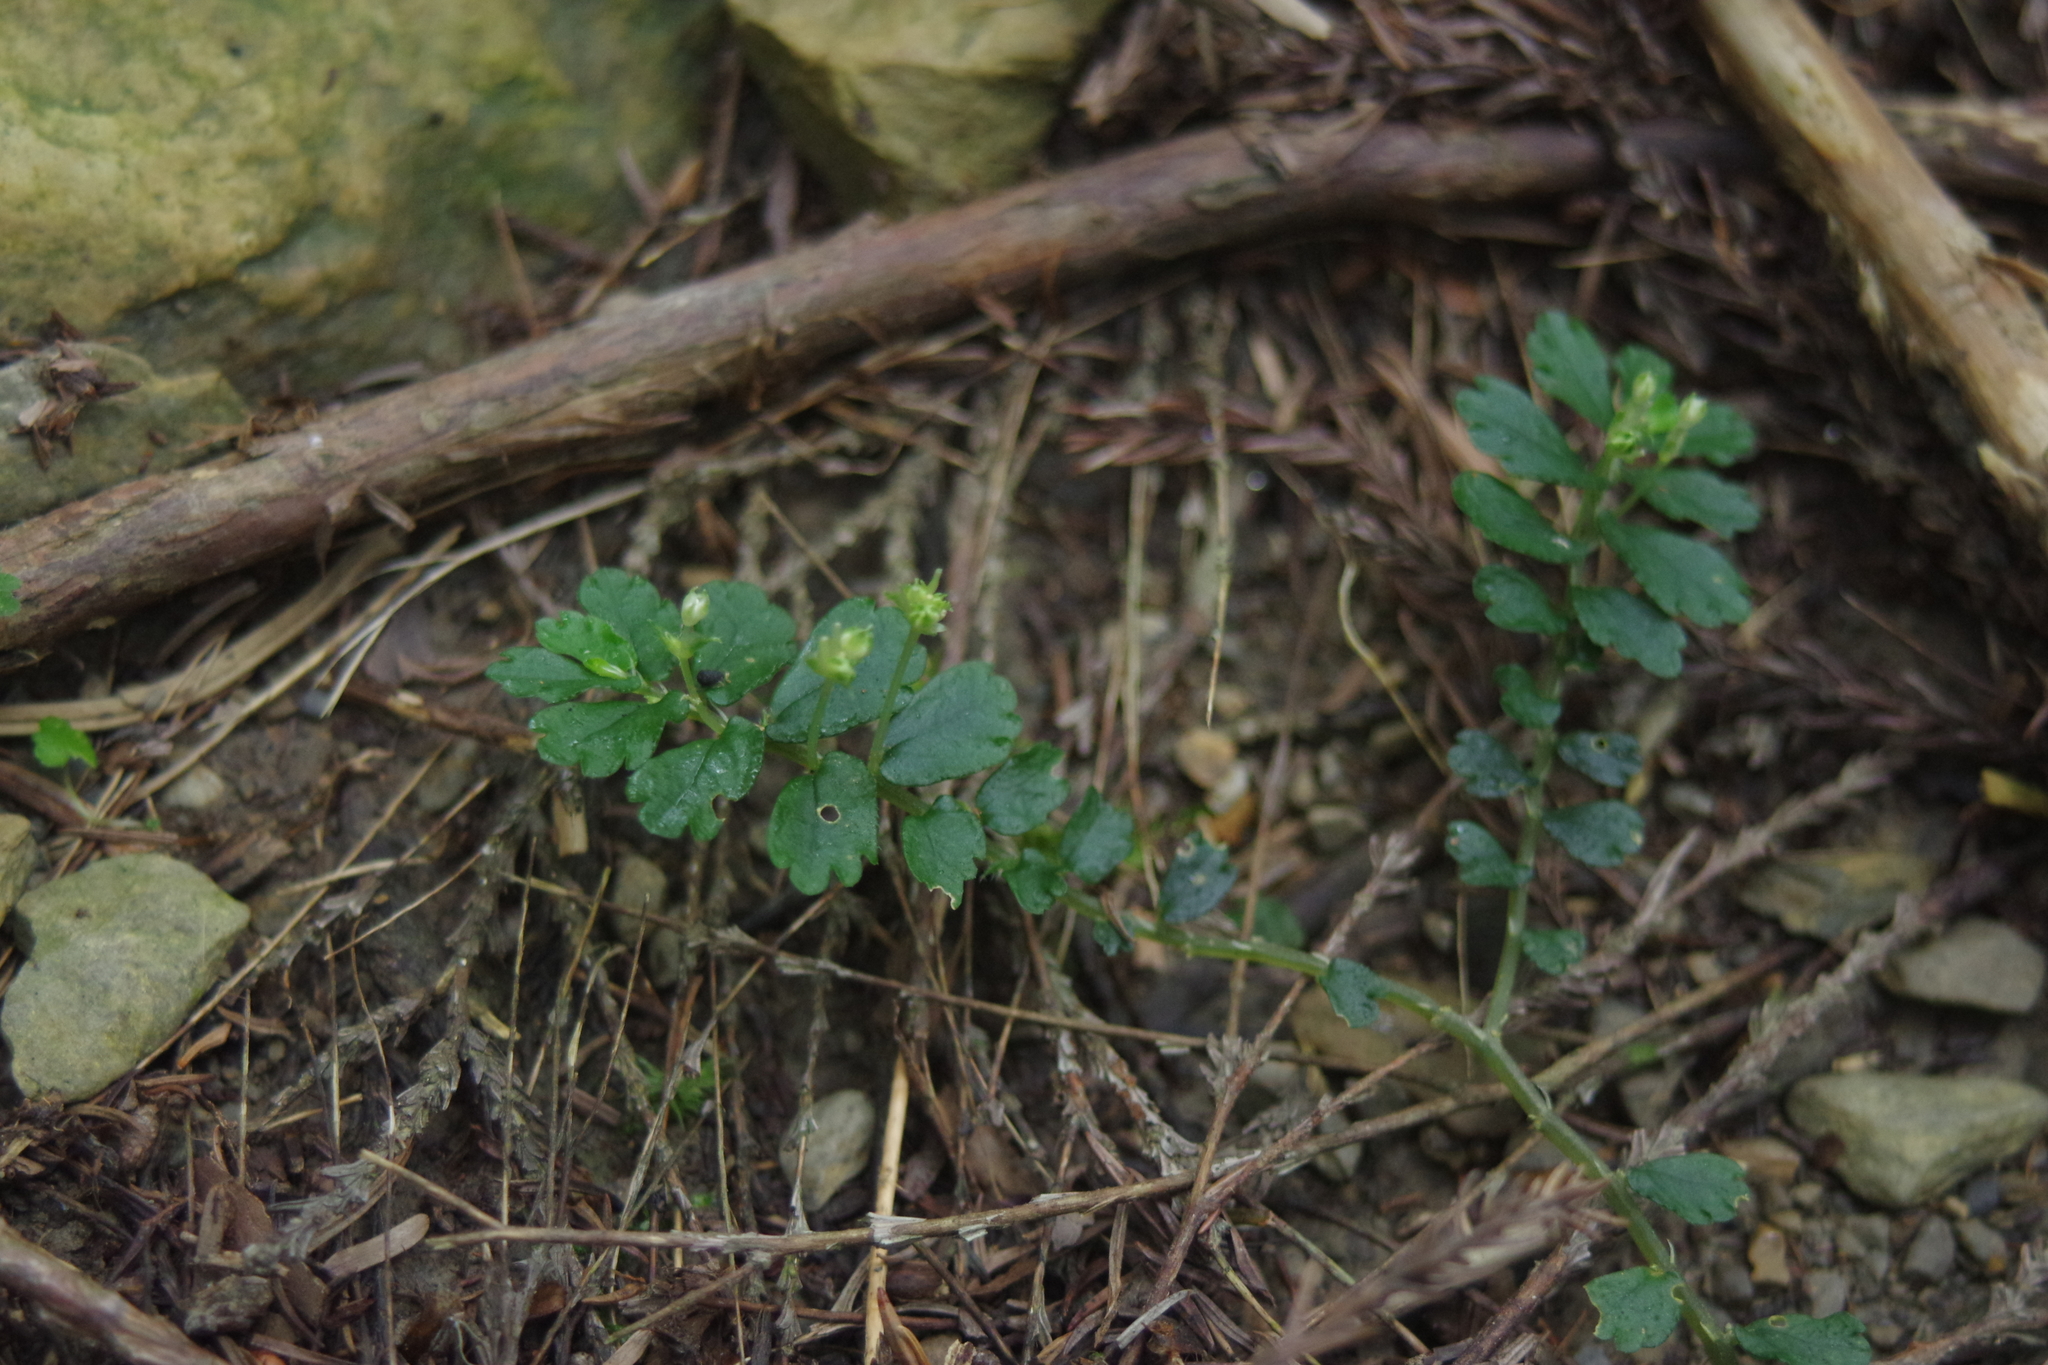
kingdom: Plantae
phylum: Tracheophyta
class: Magnoliopsida
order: Rosales
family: Urticaceae
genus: Elatostema
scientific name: Elatostema obtusum
